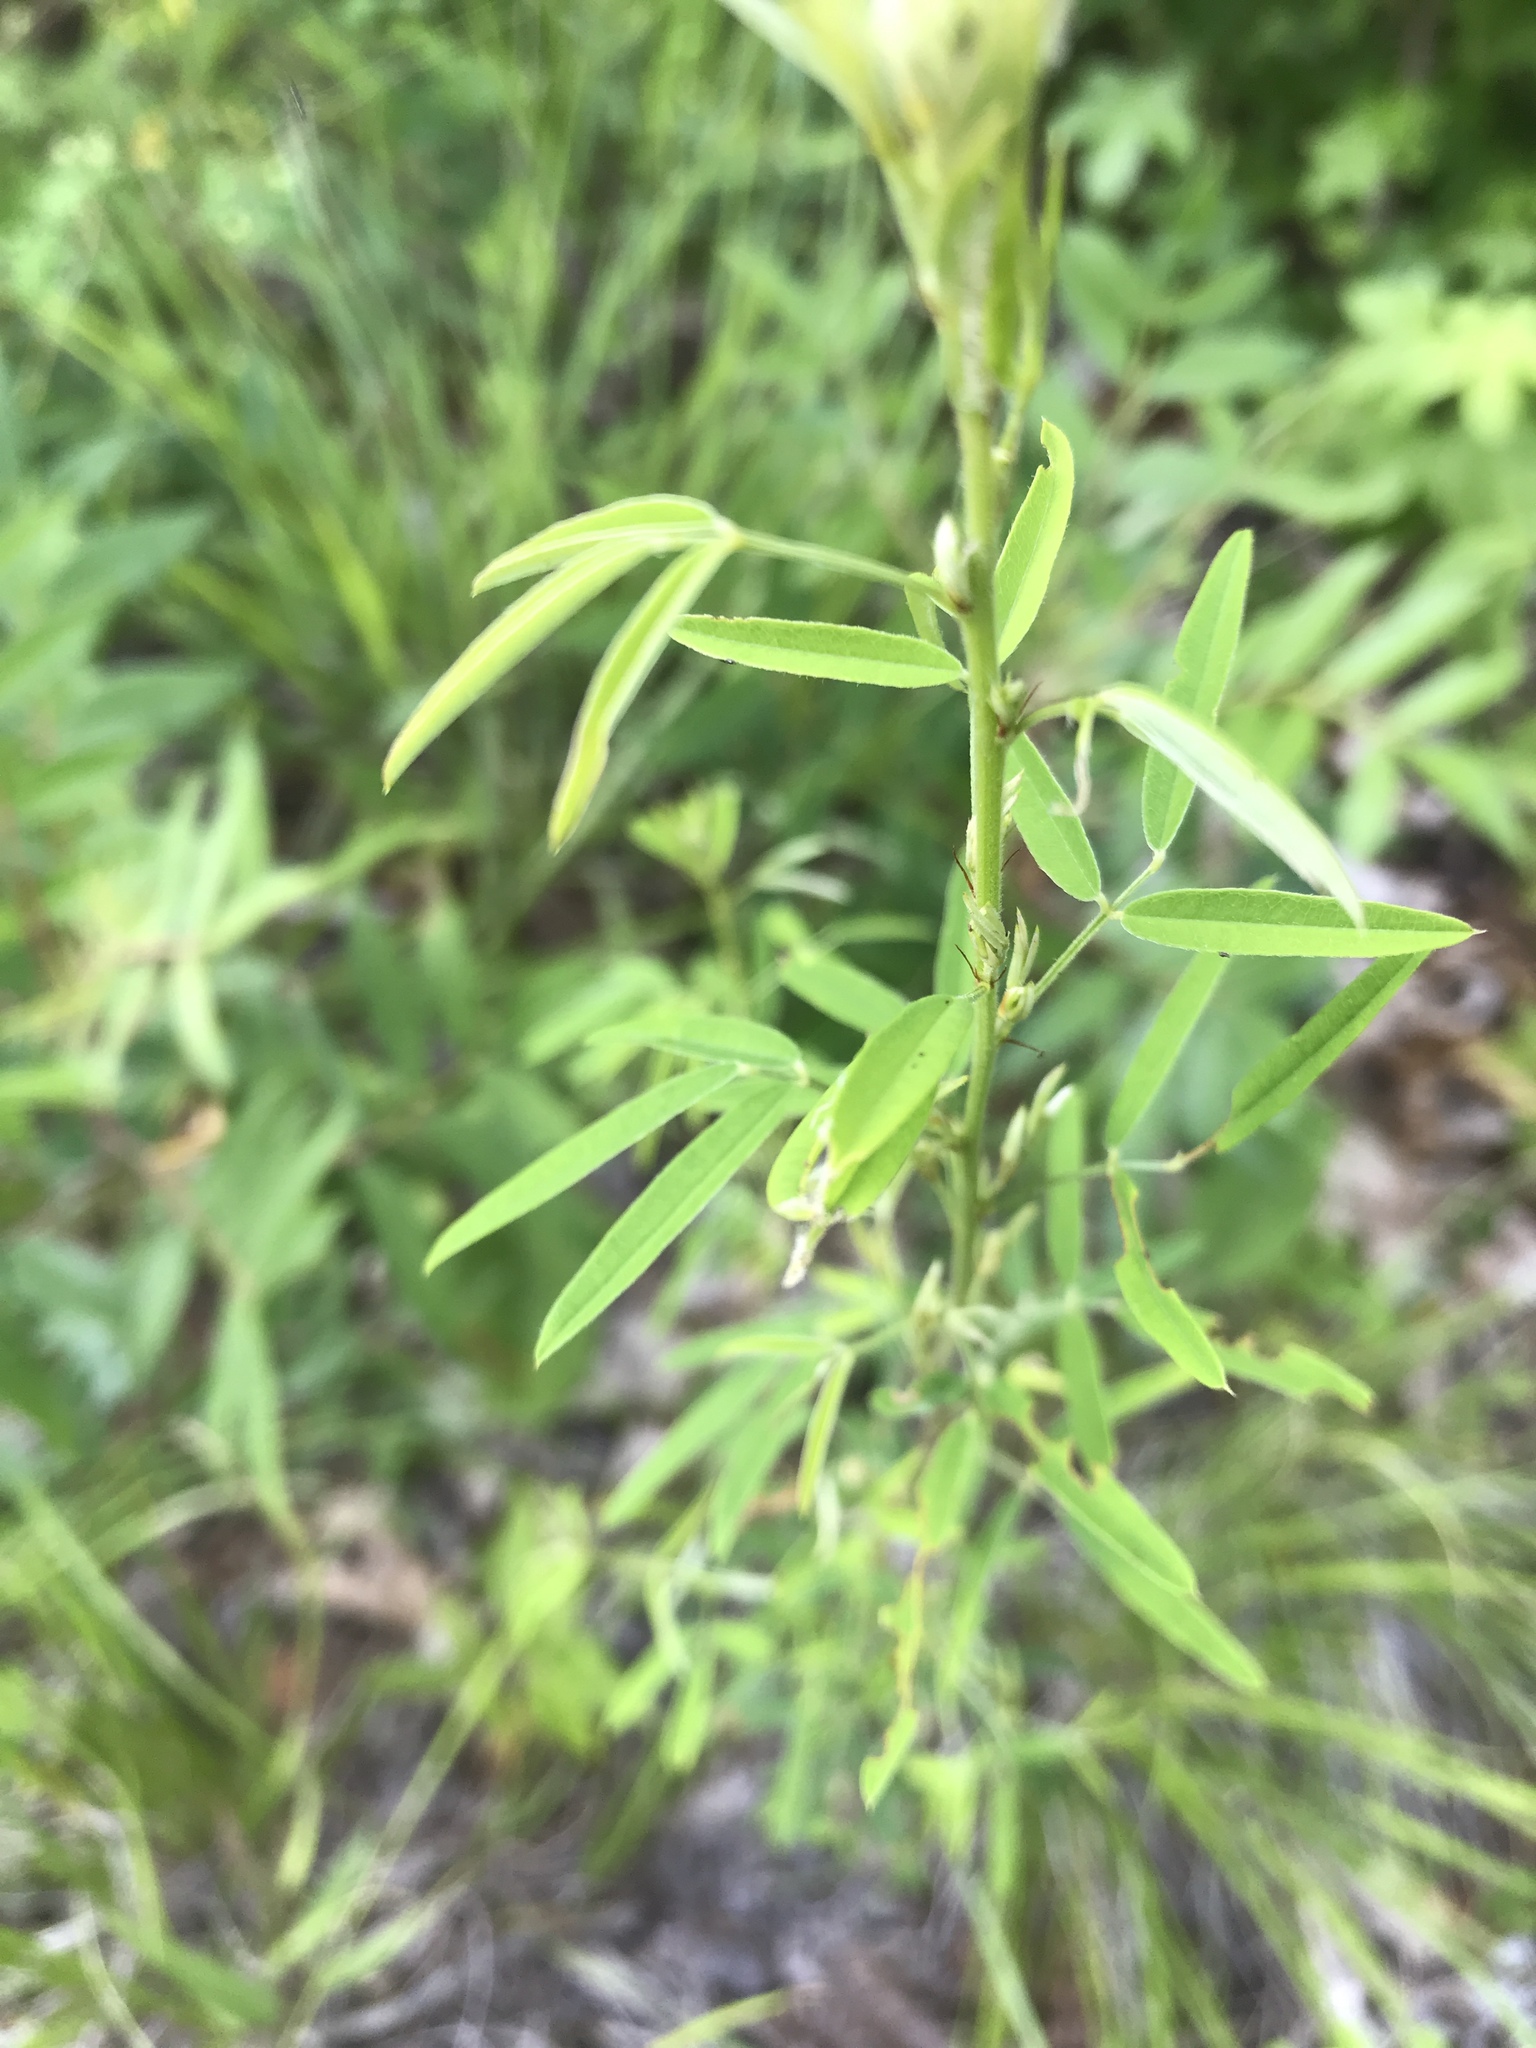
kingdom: Plantae
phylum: Tracheophyta
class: Magnoliopsida
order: Fabales
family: Fabaceae
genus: Lespedeza
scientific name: Lespedeza virginica
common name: Slender bush-clover
